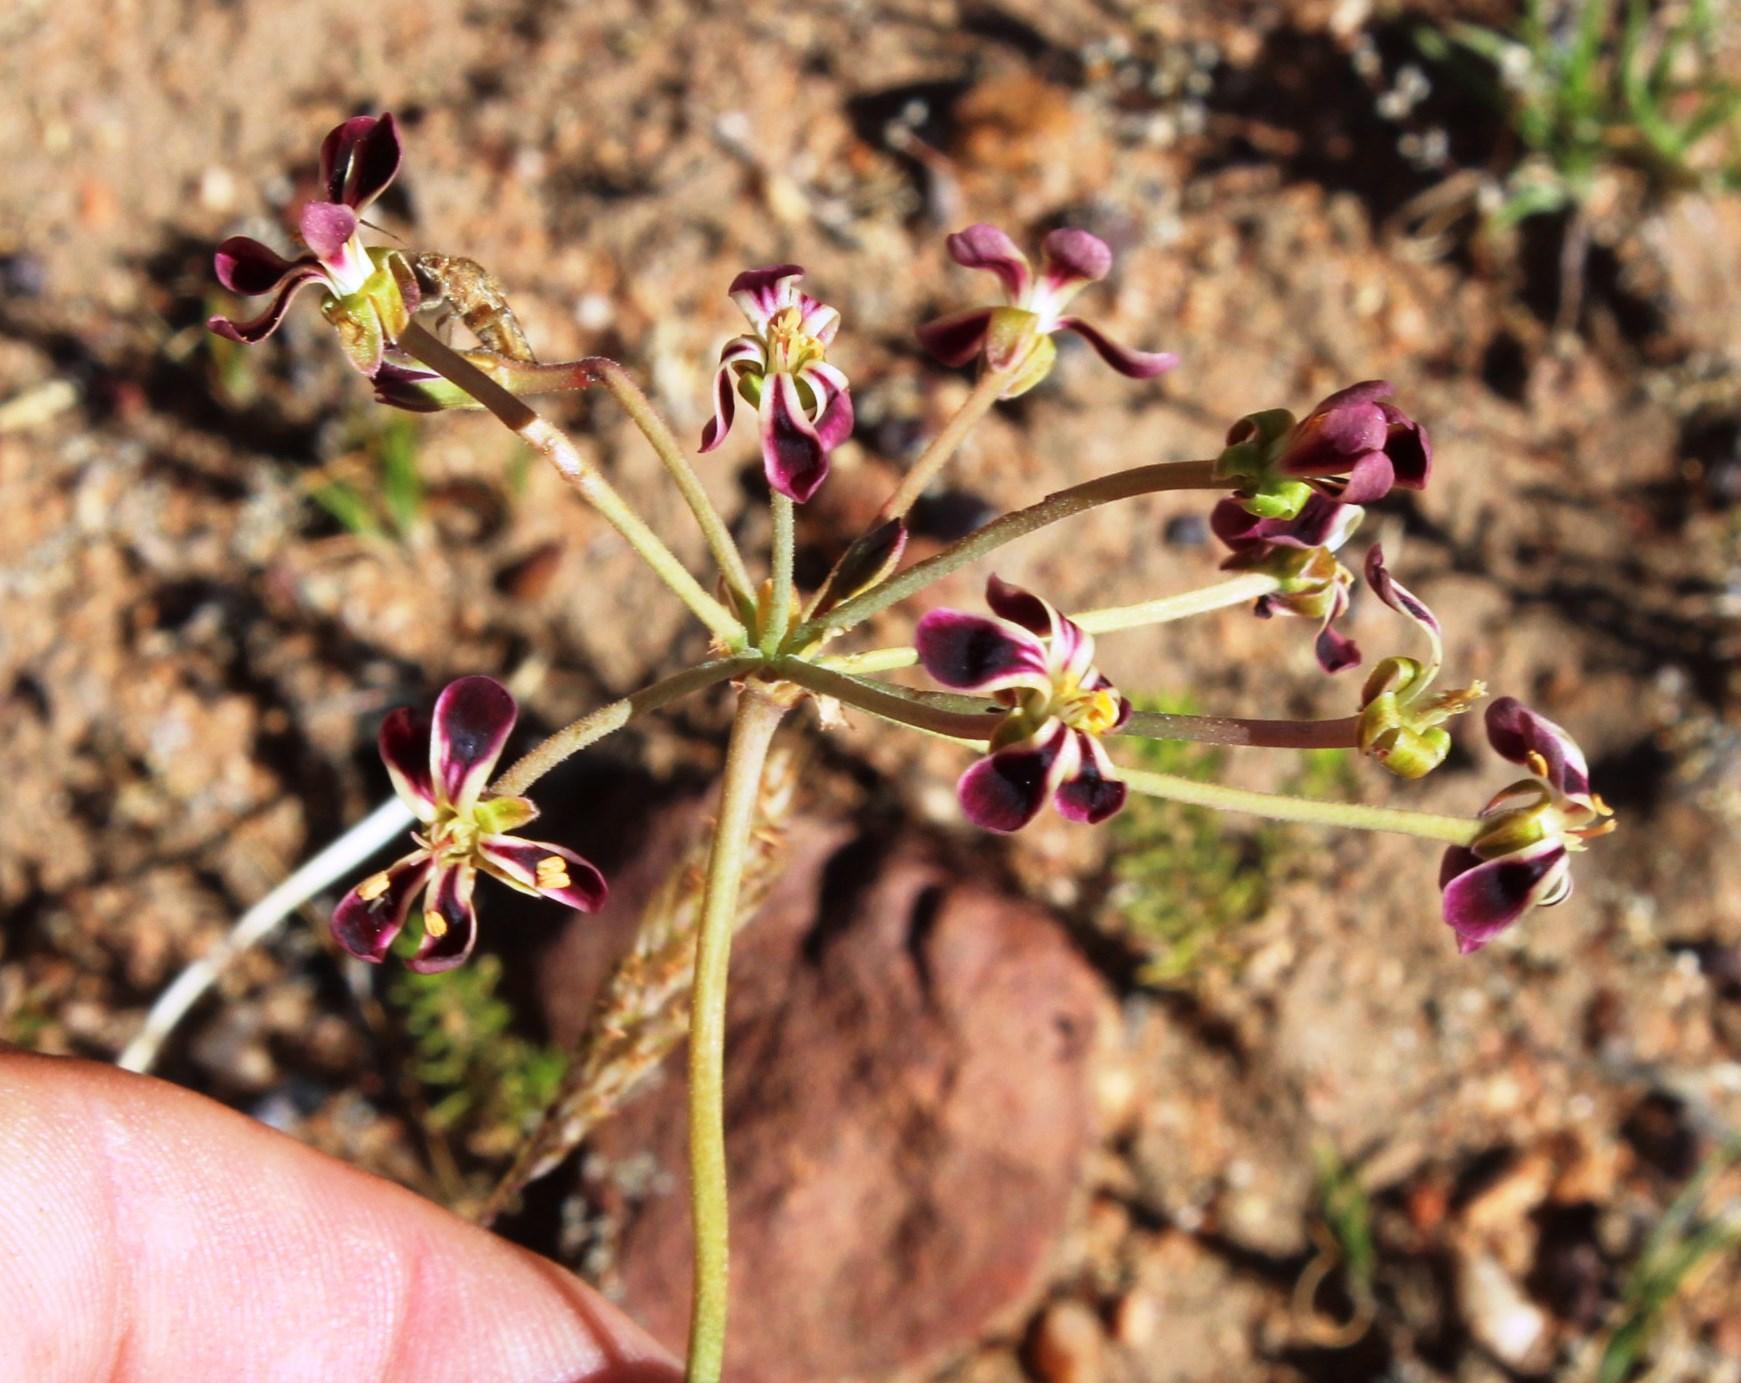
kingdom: Plantae
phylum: Tracheophyta
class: Magnoliopsida
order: Geraniales
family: Geraniaceae
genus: Pelargonium
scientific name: Pelargonium triste
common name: Night-scent pelargonium
